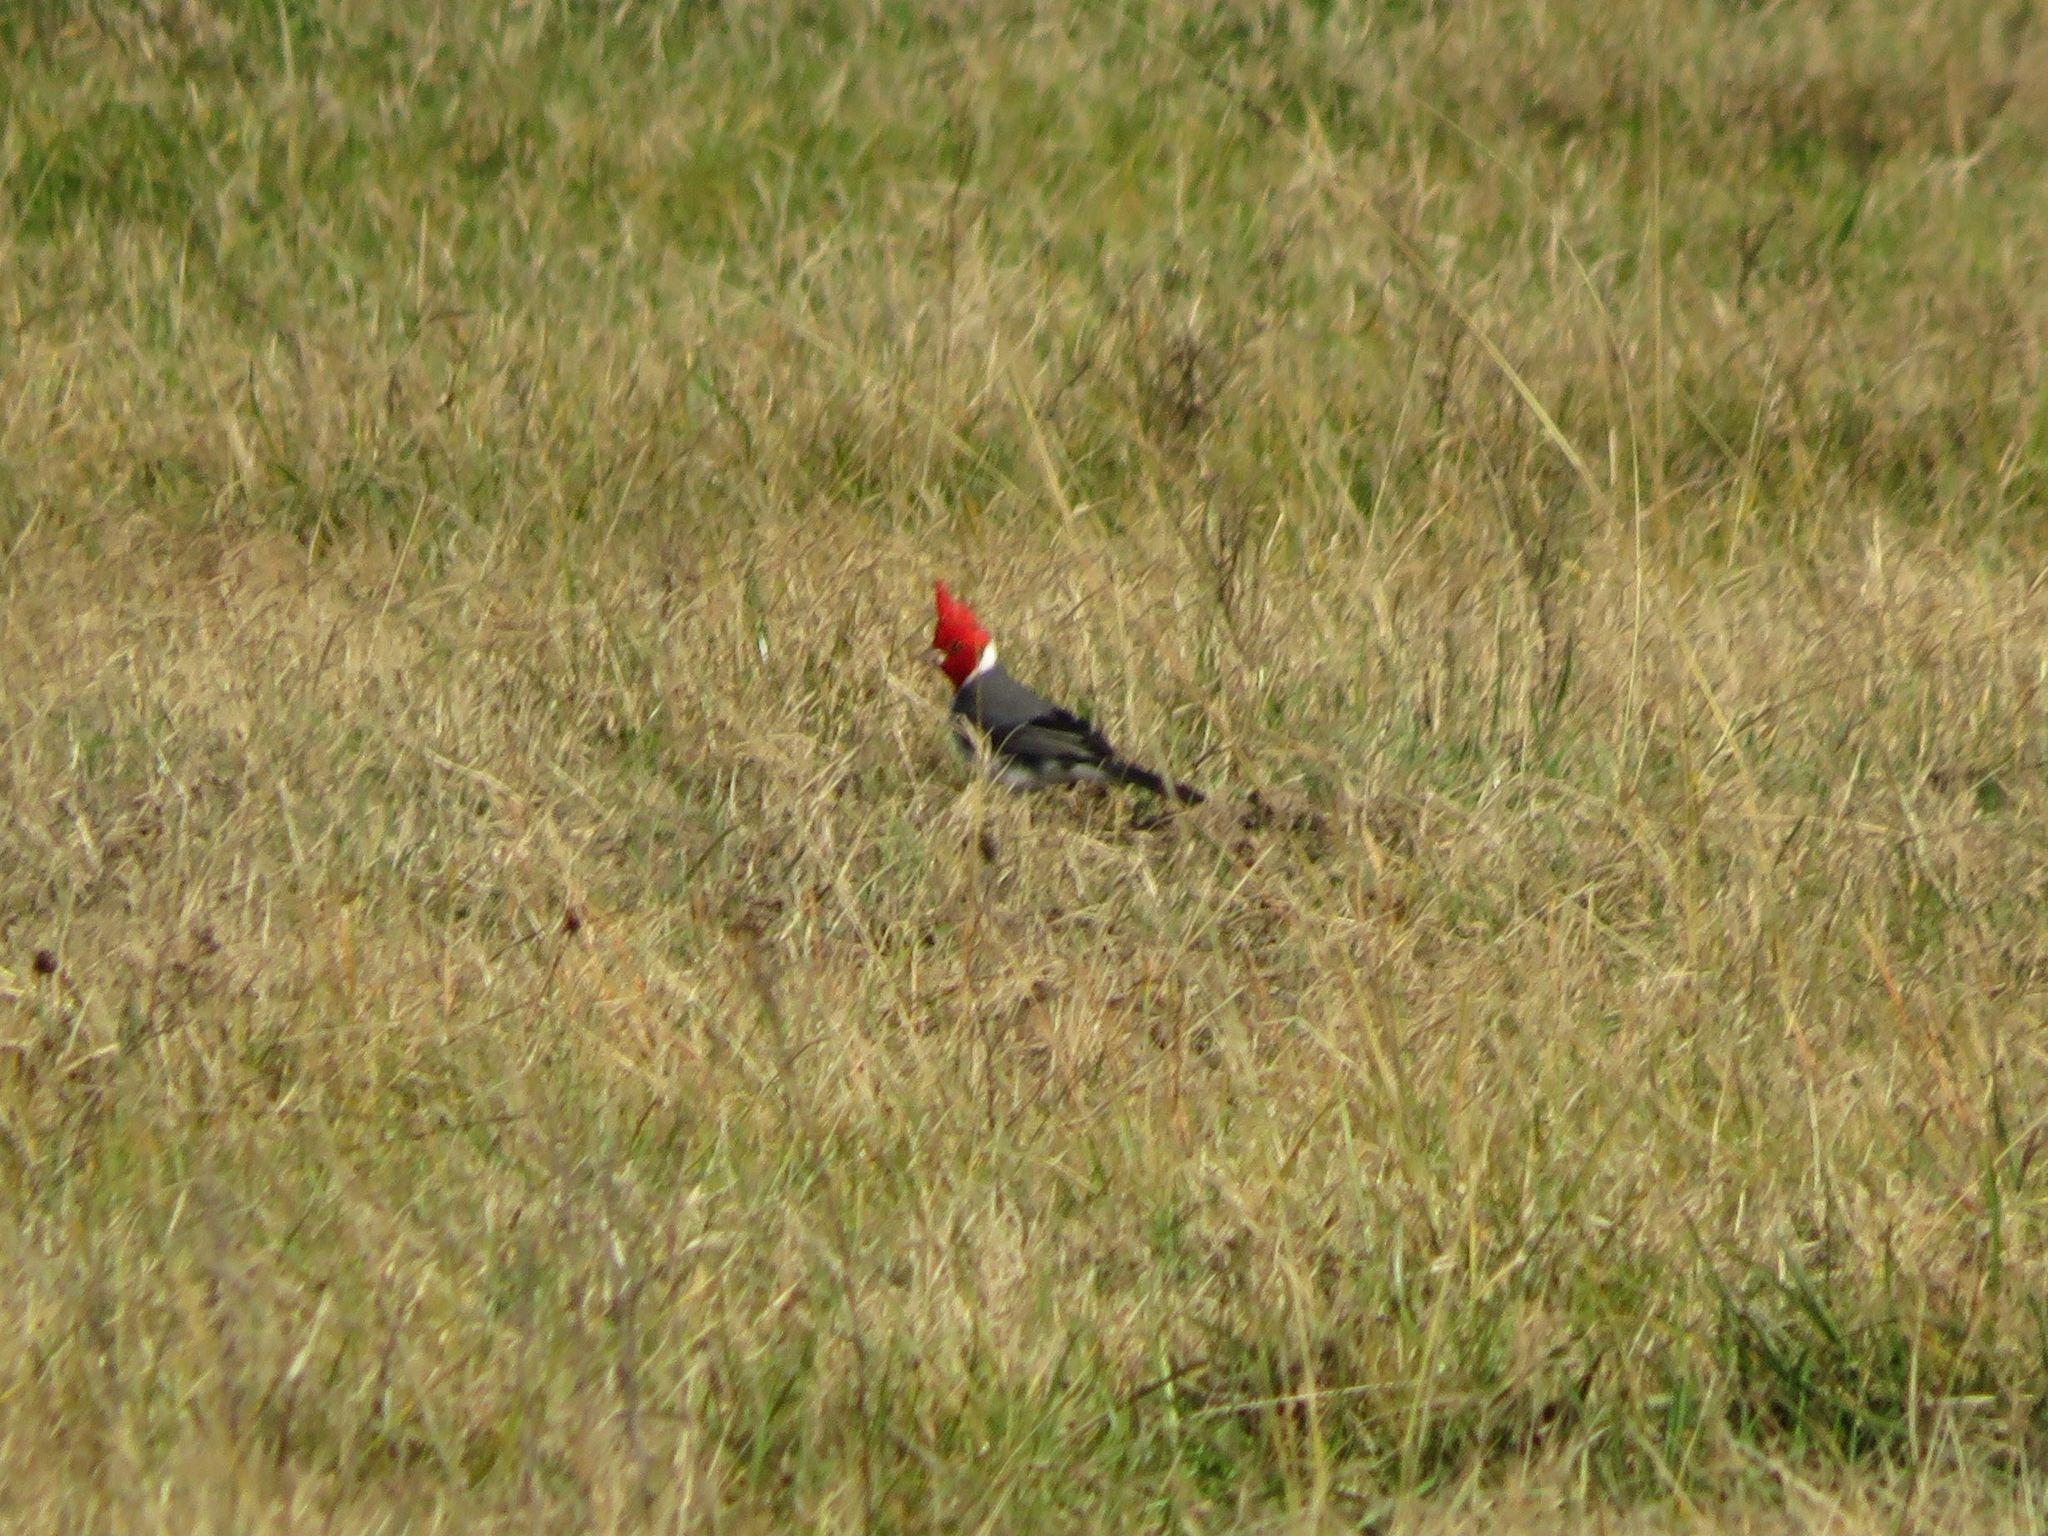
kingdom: Animalia
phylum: Chordata
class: Aves
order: Passeriformes
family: Thraupidae
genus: Paroaria
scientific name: Paroaria coronata
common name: Red-crested cardinal
